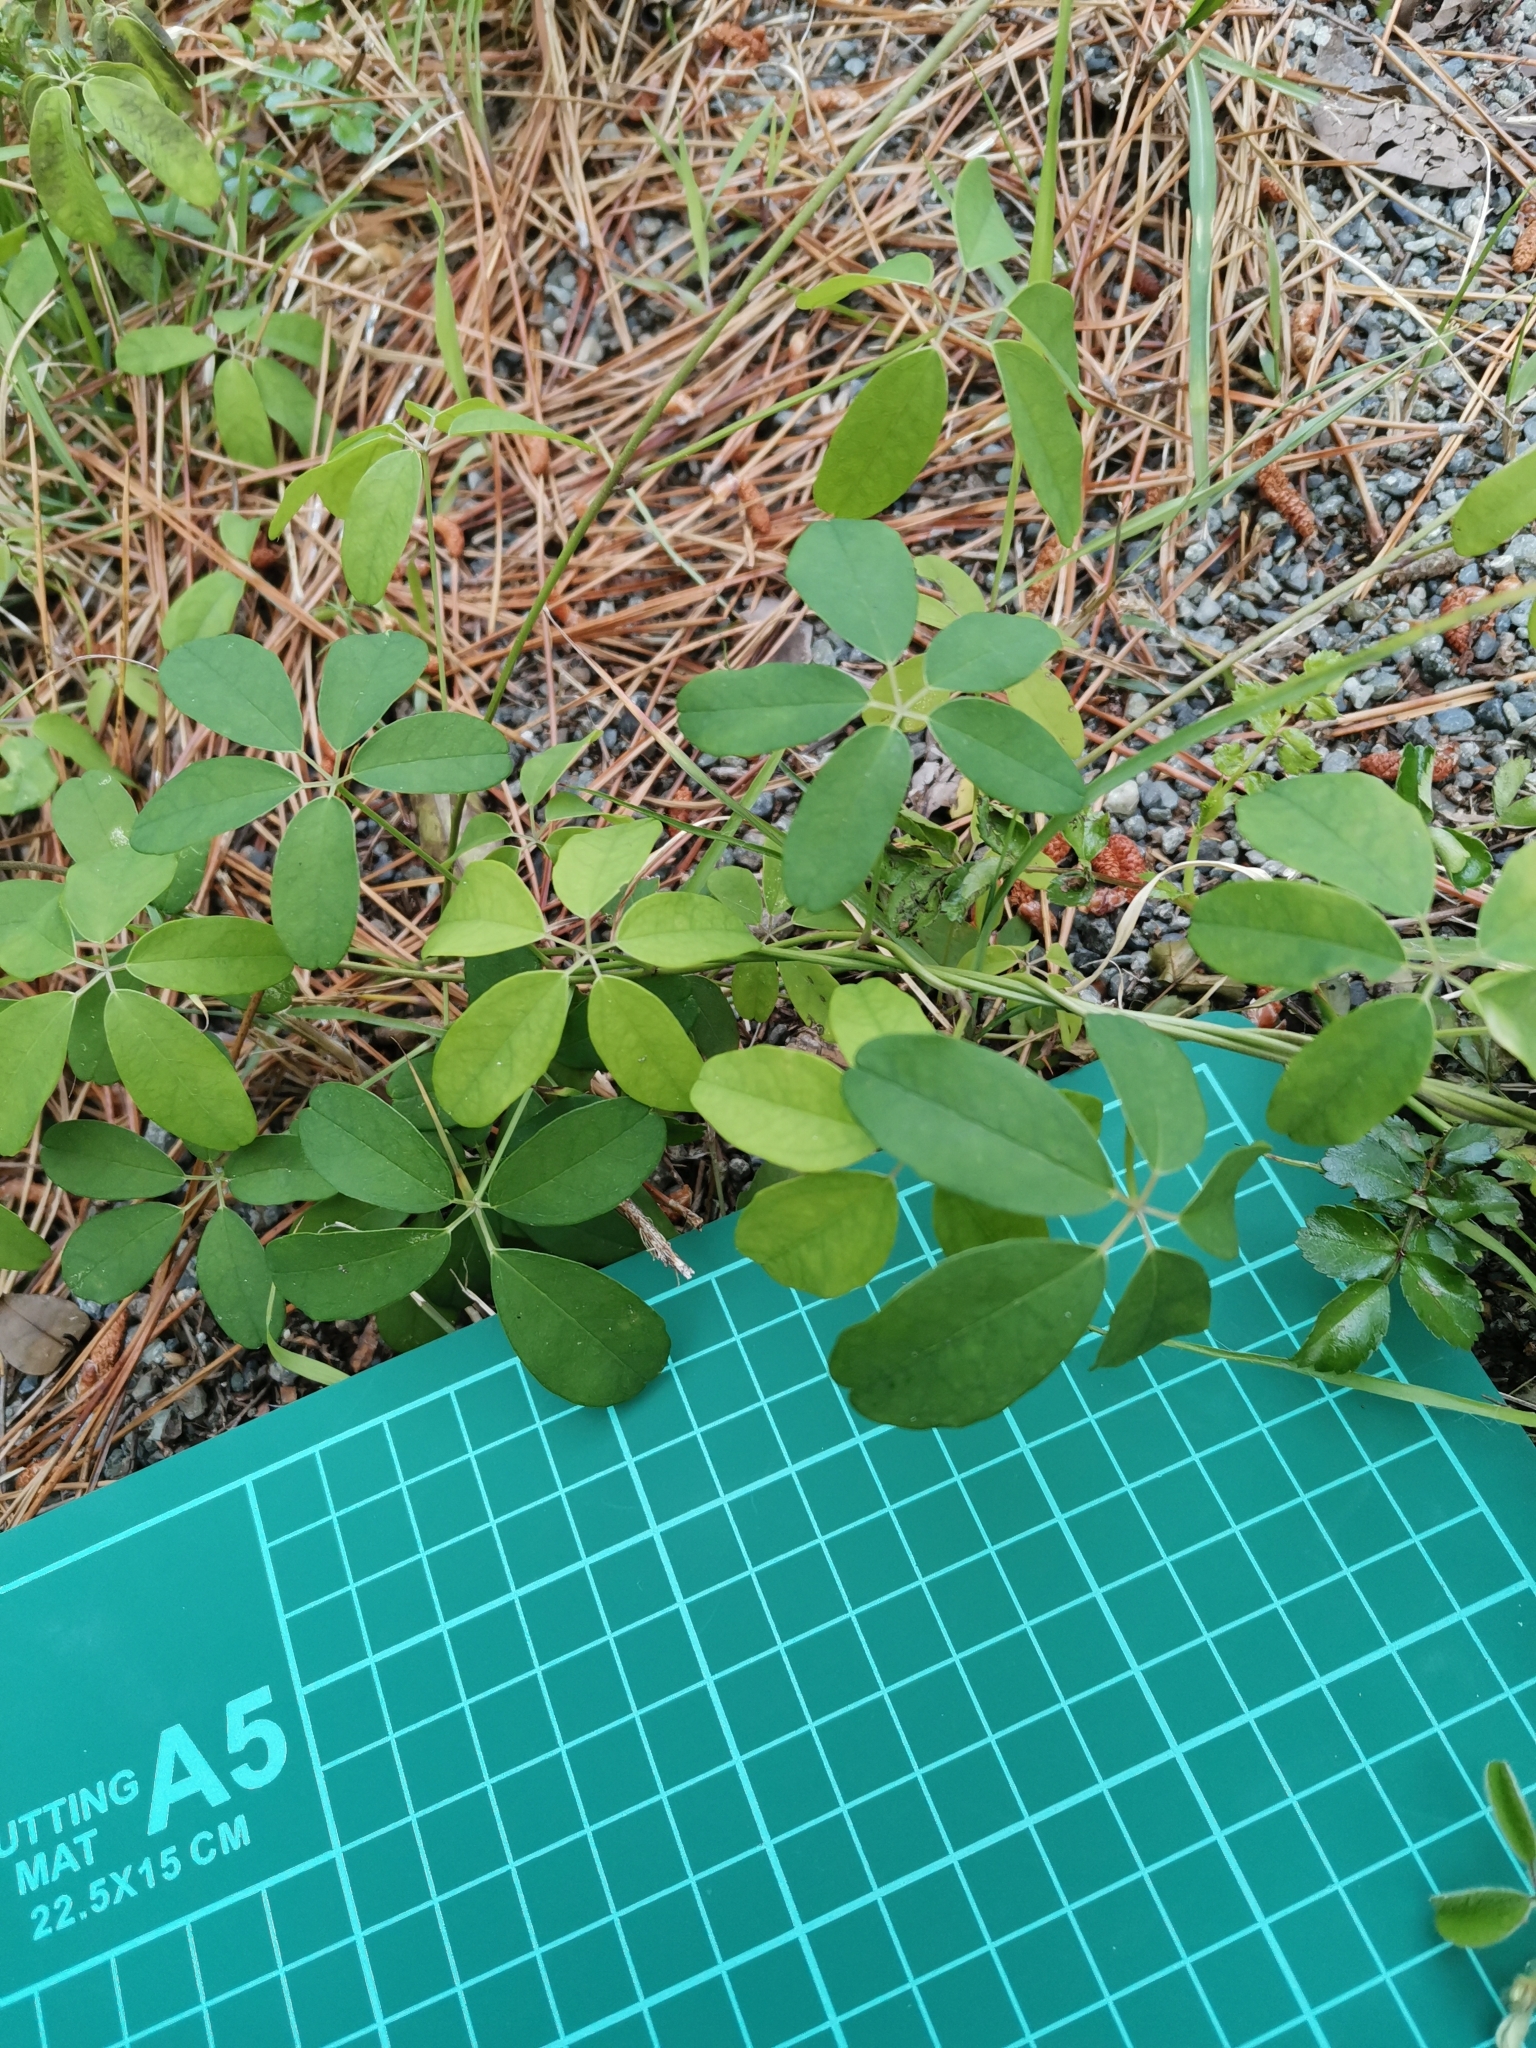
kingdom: Plantae
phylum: Tracheophyta
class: Magnoliopsida
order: Ranunculales
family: Lardizabalaceae
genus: Akebia
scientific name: Akebia quinata
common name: Five-leaf akebia
